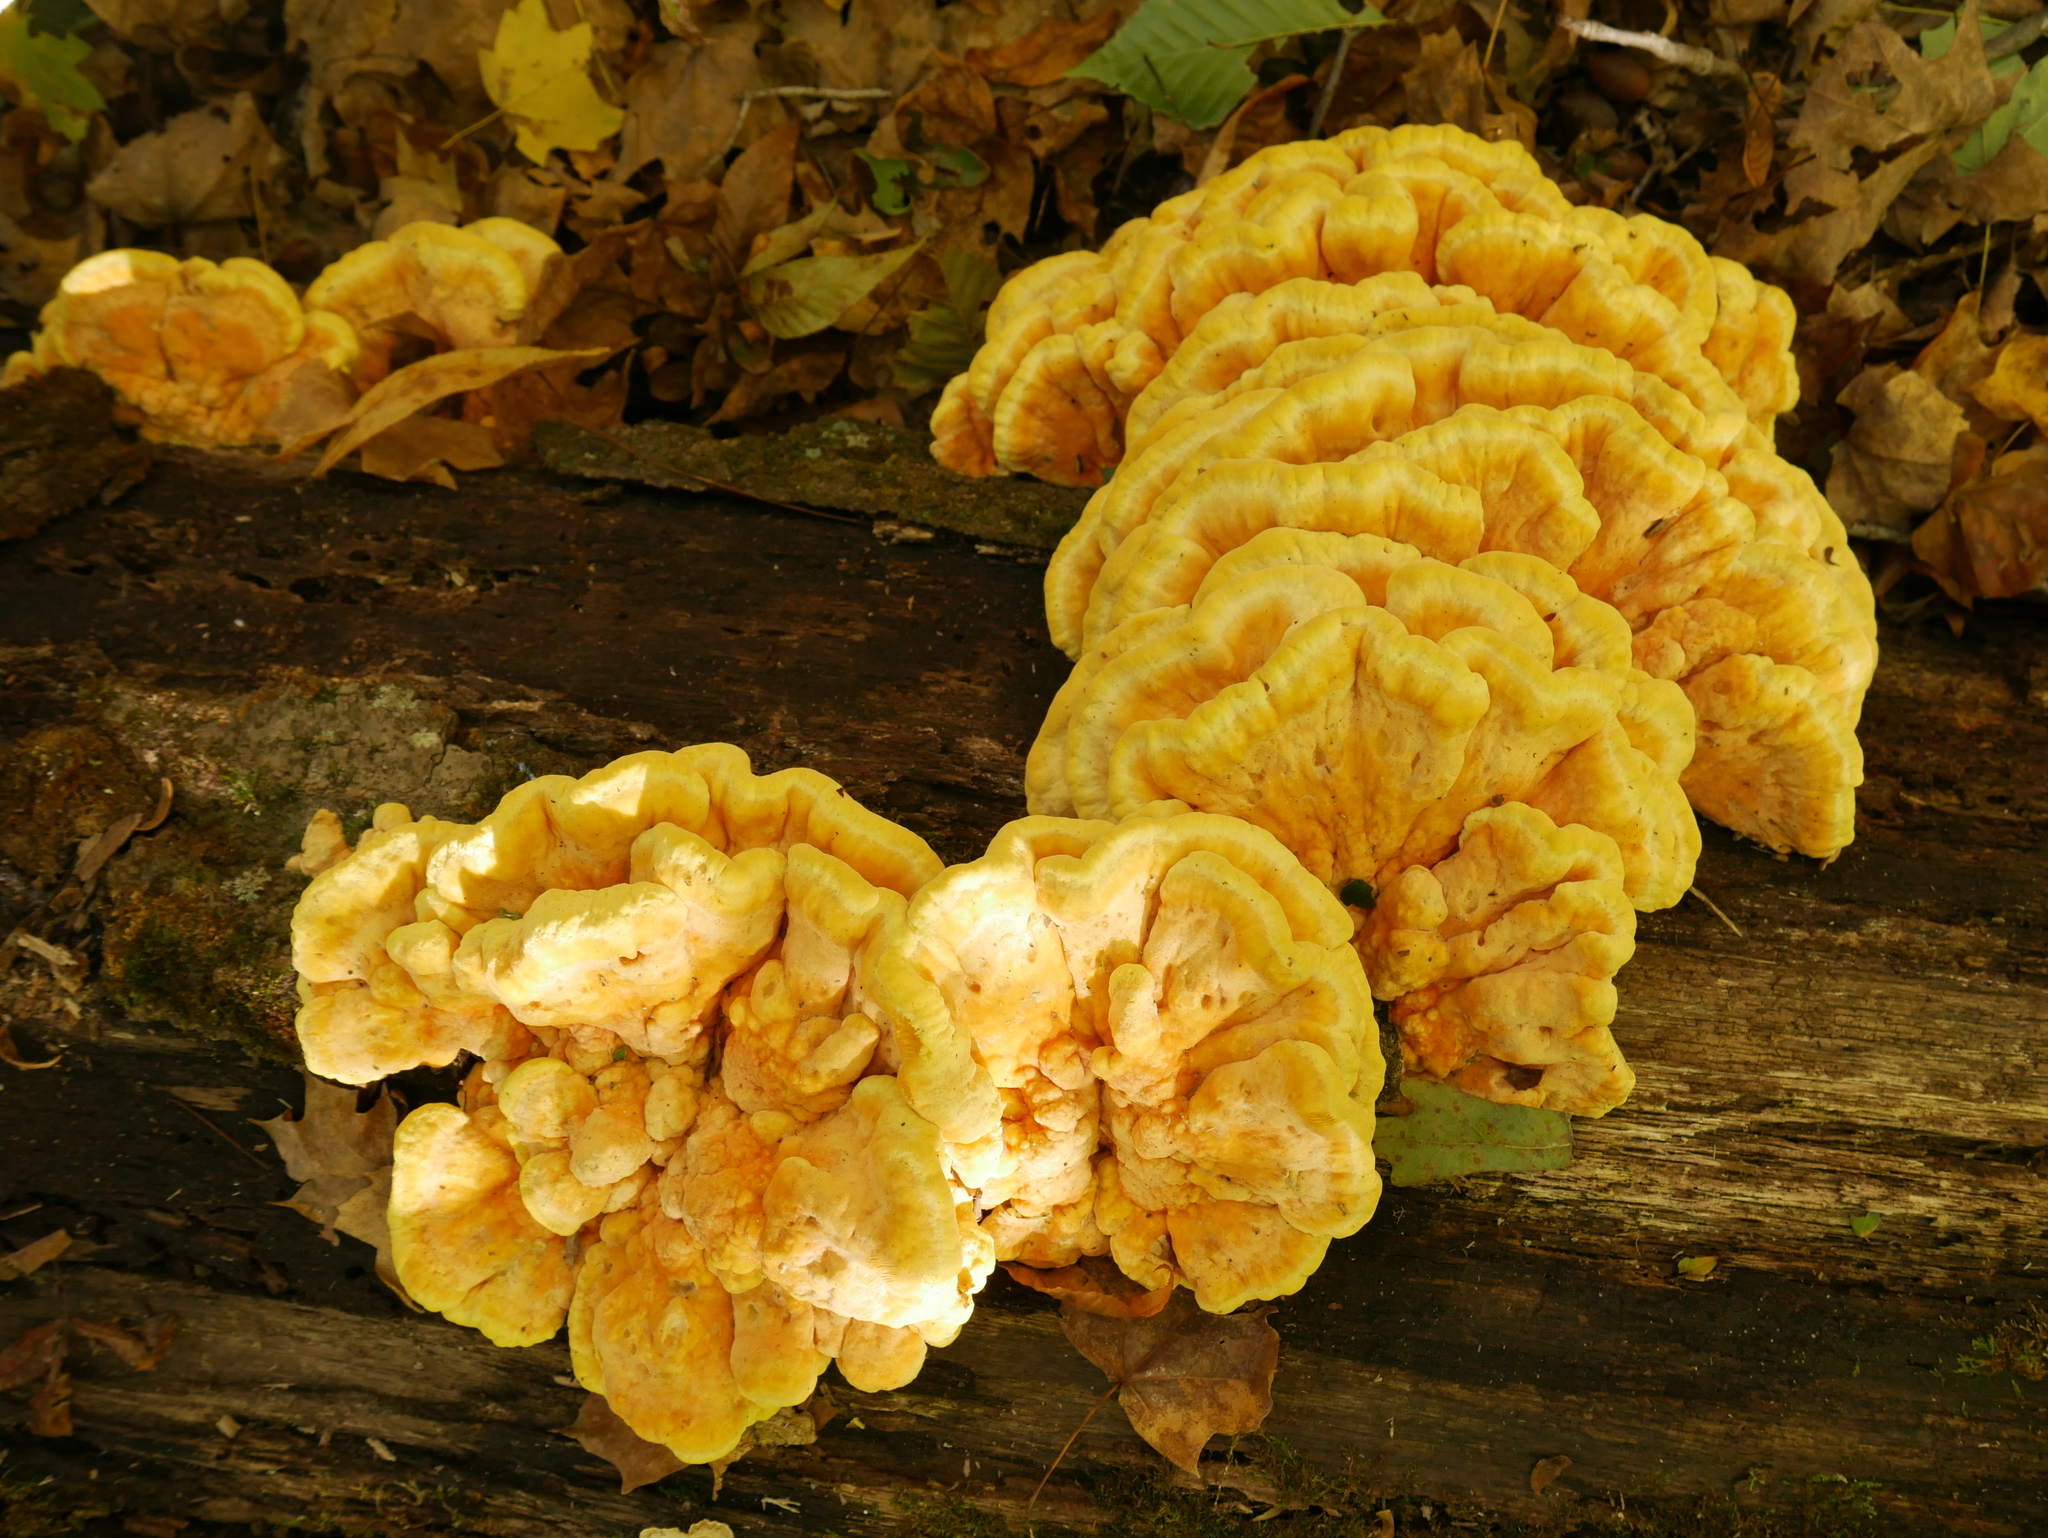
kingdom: Fungi
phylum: Basidiomycota
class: Agaricomycetes
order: Polyporales
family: Laetiporaceae
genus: Laetiporus
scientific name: Laetiporus sulphureus
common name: Chicken of the woods
